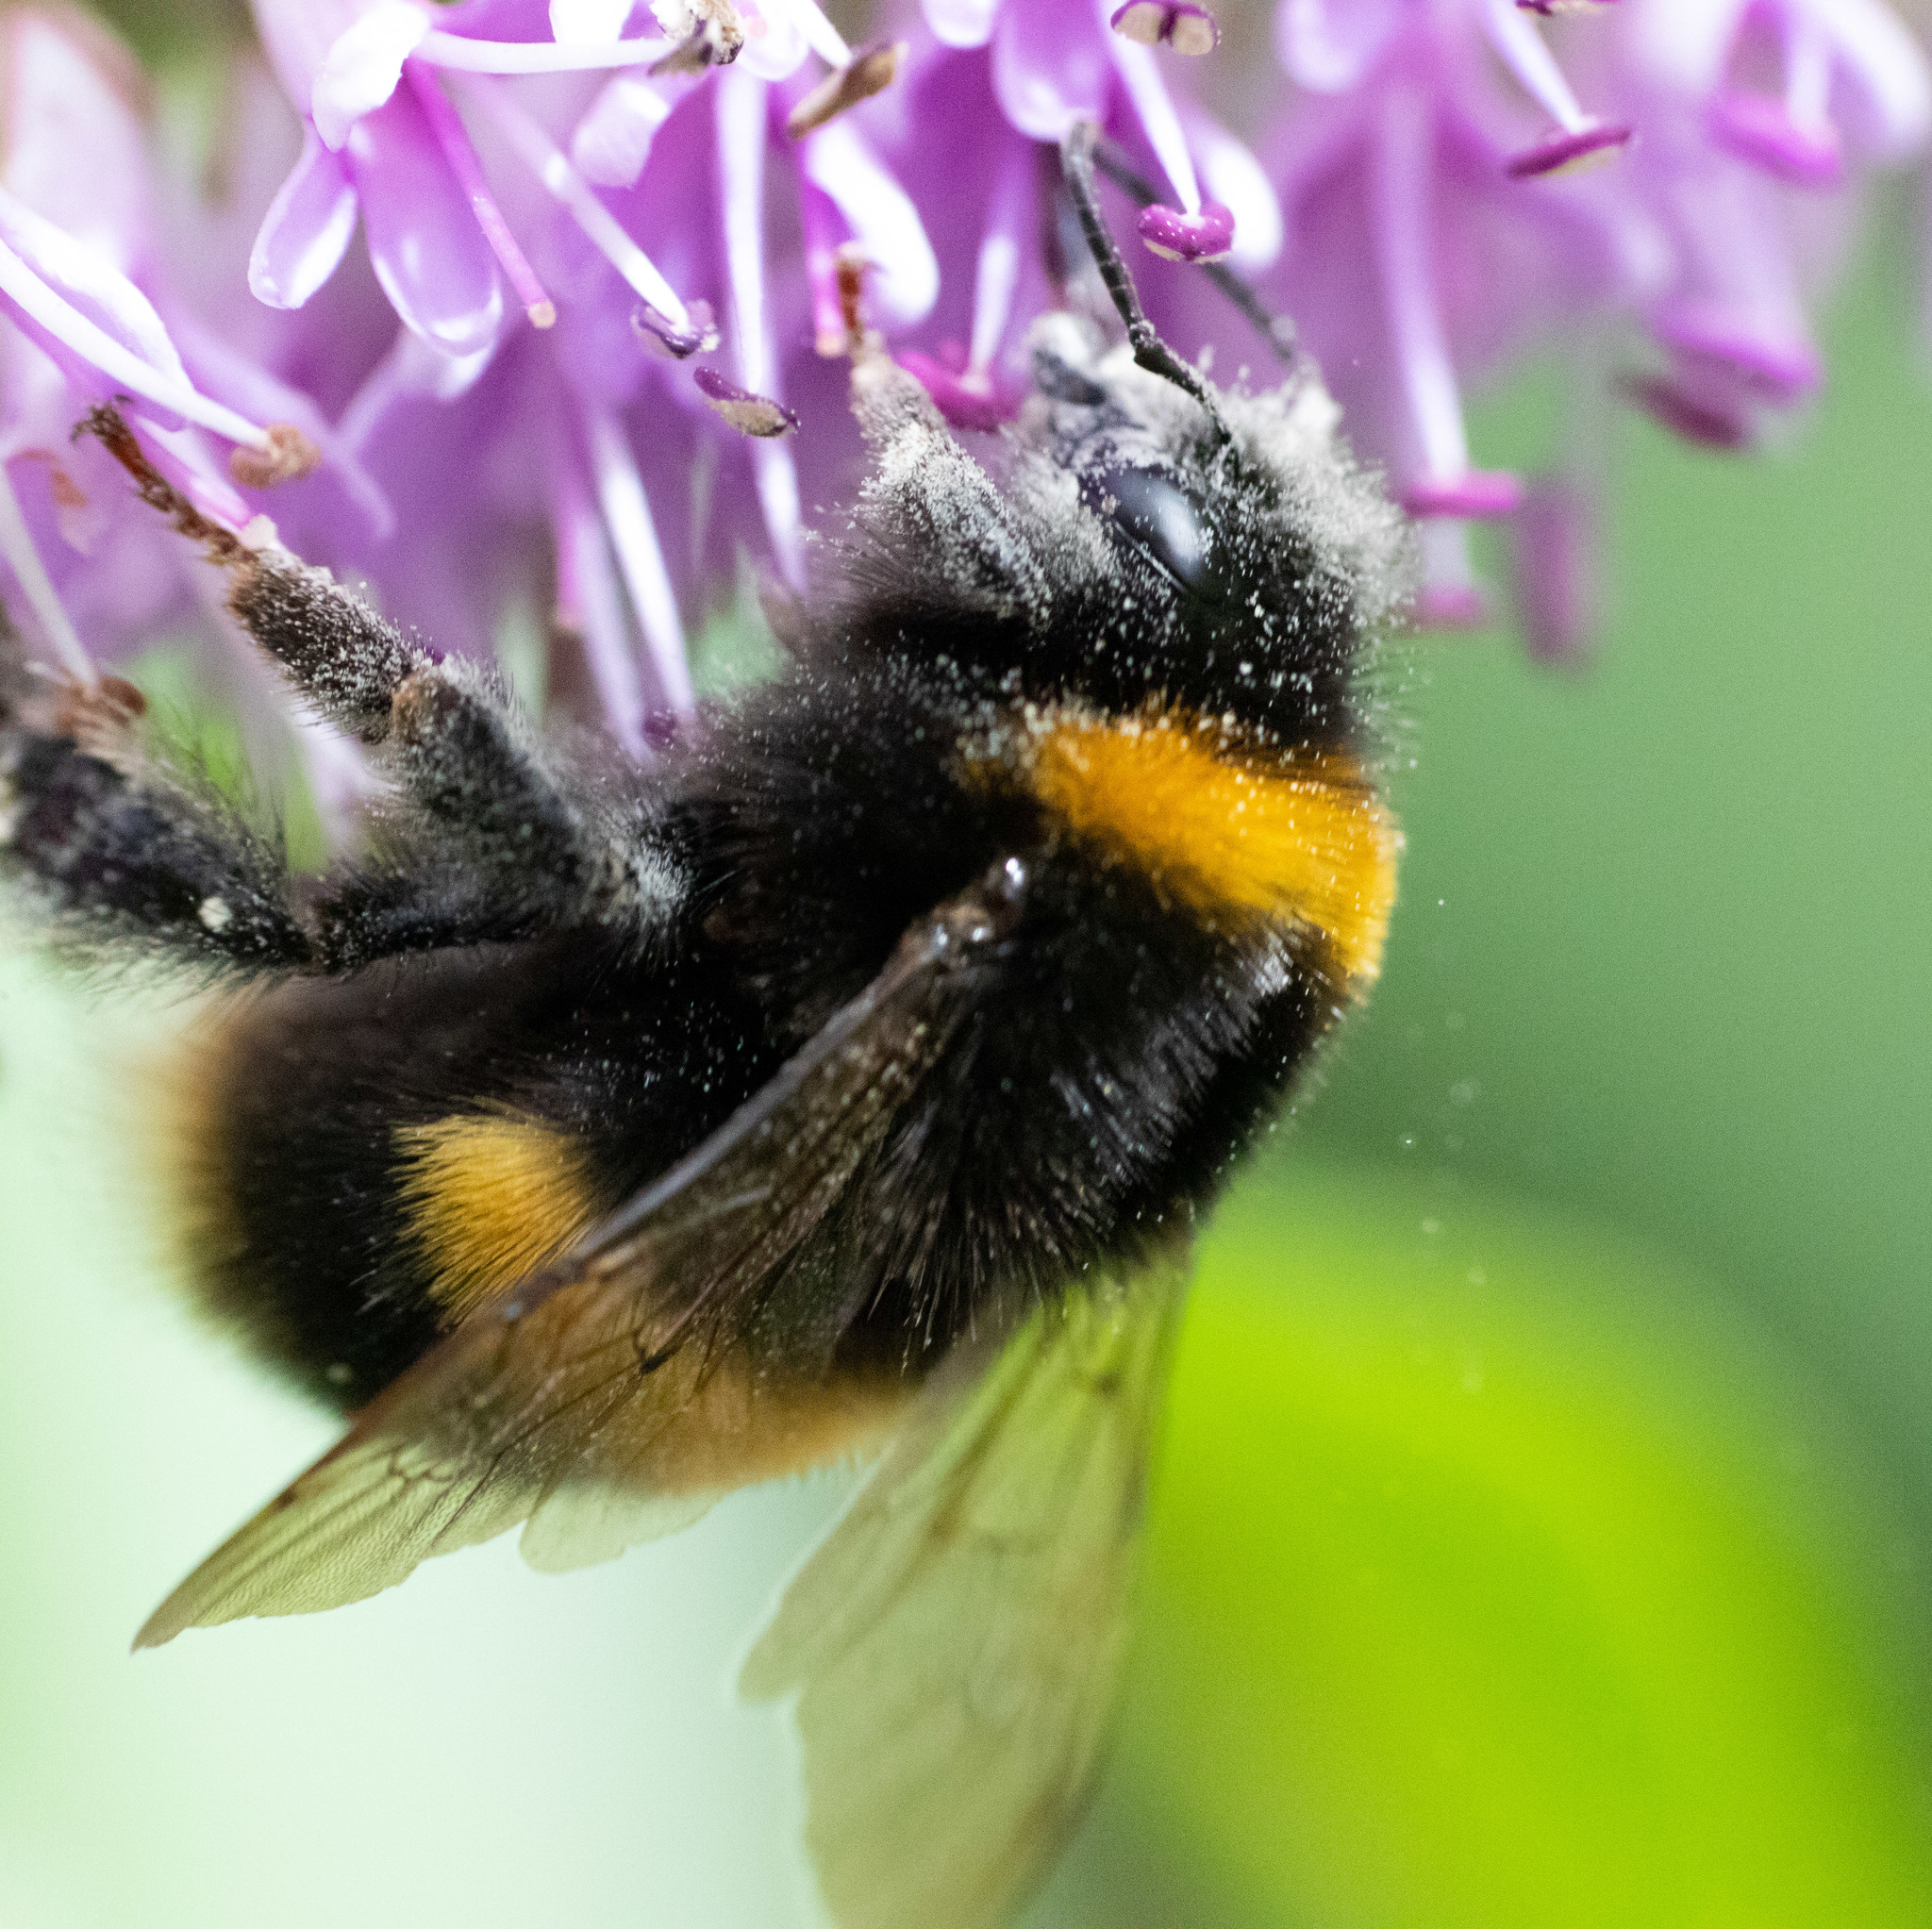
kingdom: Animalia
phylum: Arthropoda
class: Insecta
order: Hymenoptera
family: Apidae
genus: Bombus
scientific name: Bombus terrestris
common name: Buff-tailed bumblebee
